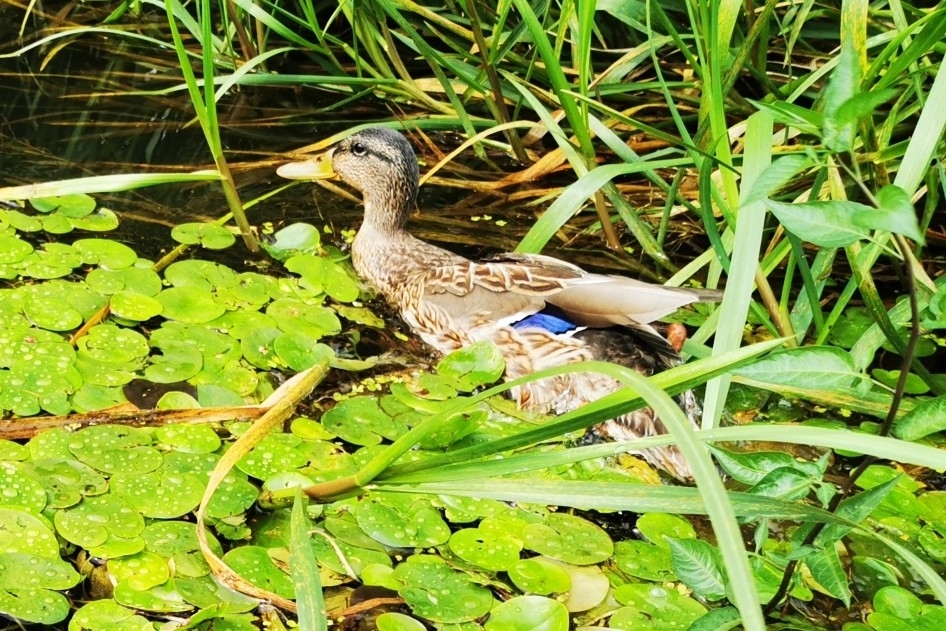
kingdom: Animalia
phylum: Chordata
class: Aves
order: Anseriformes
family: Anatidae
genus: Anas
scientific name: Anas platyrhynchos
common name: Mallard
